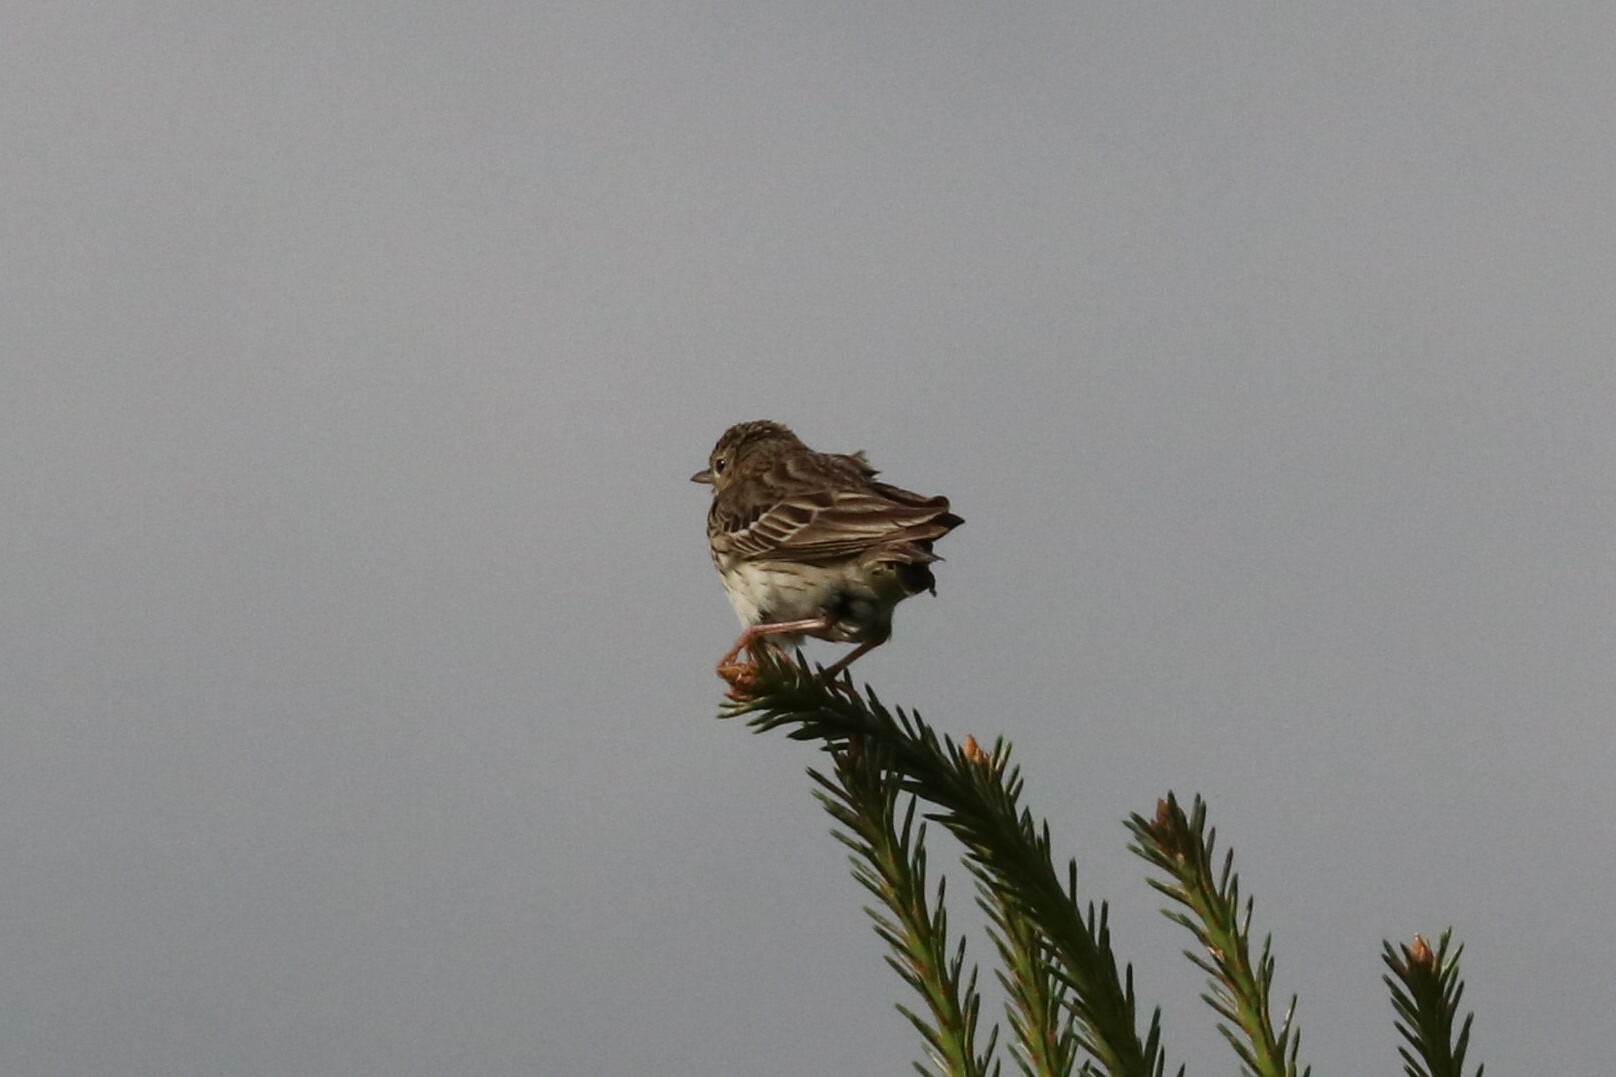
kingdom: Animalia
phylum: Chordata
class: Aves
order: Passeriformes
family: Motacillidae
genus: Anthus
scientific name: Anthus trivialis
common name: Tree pipit
